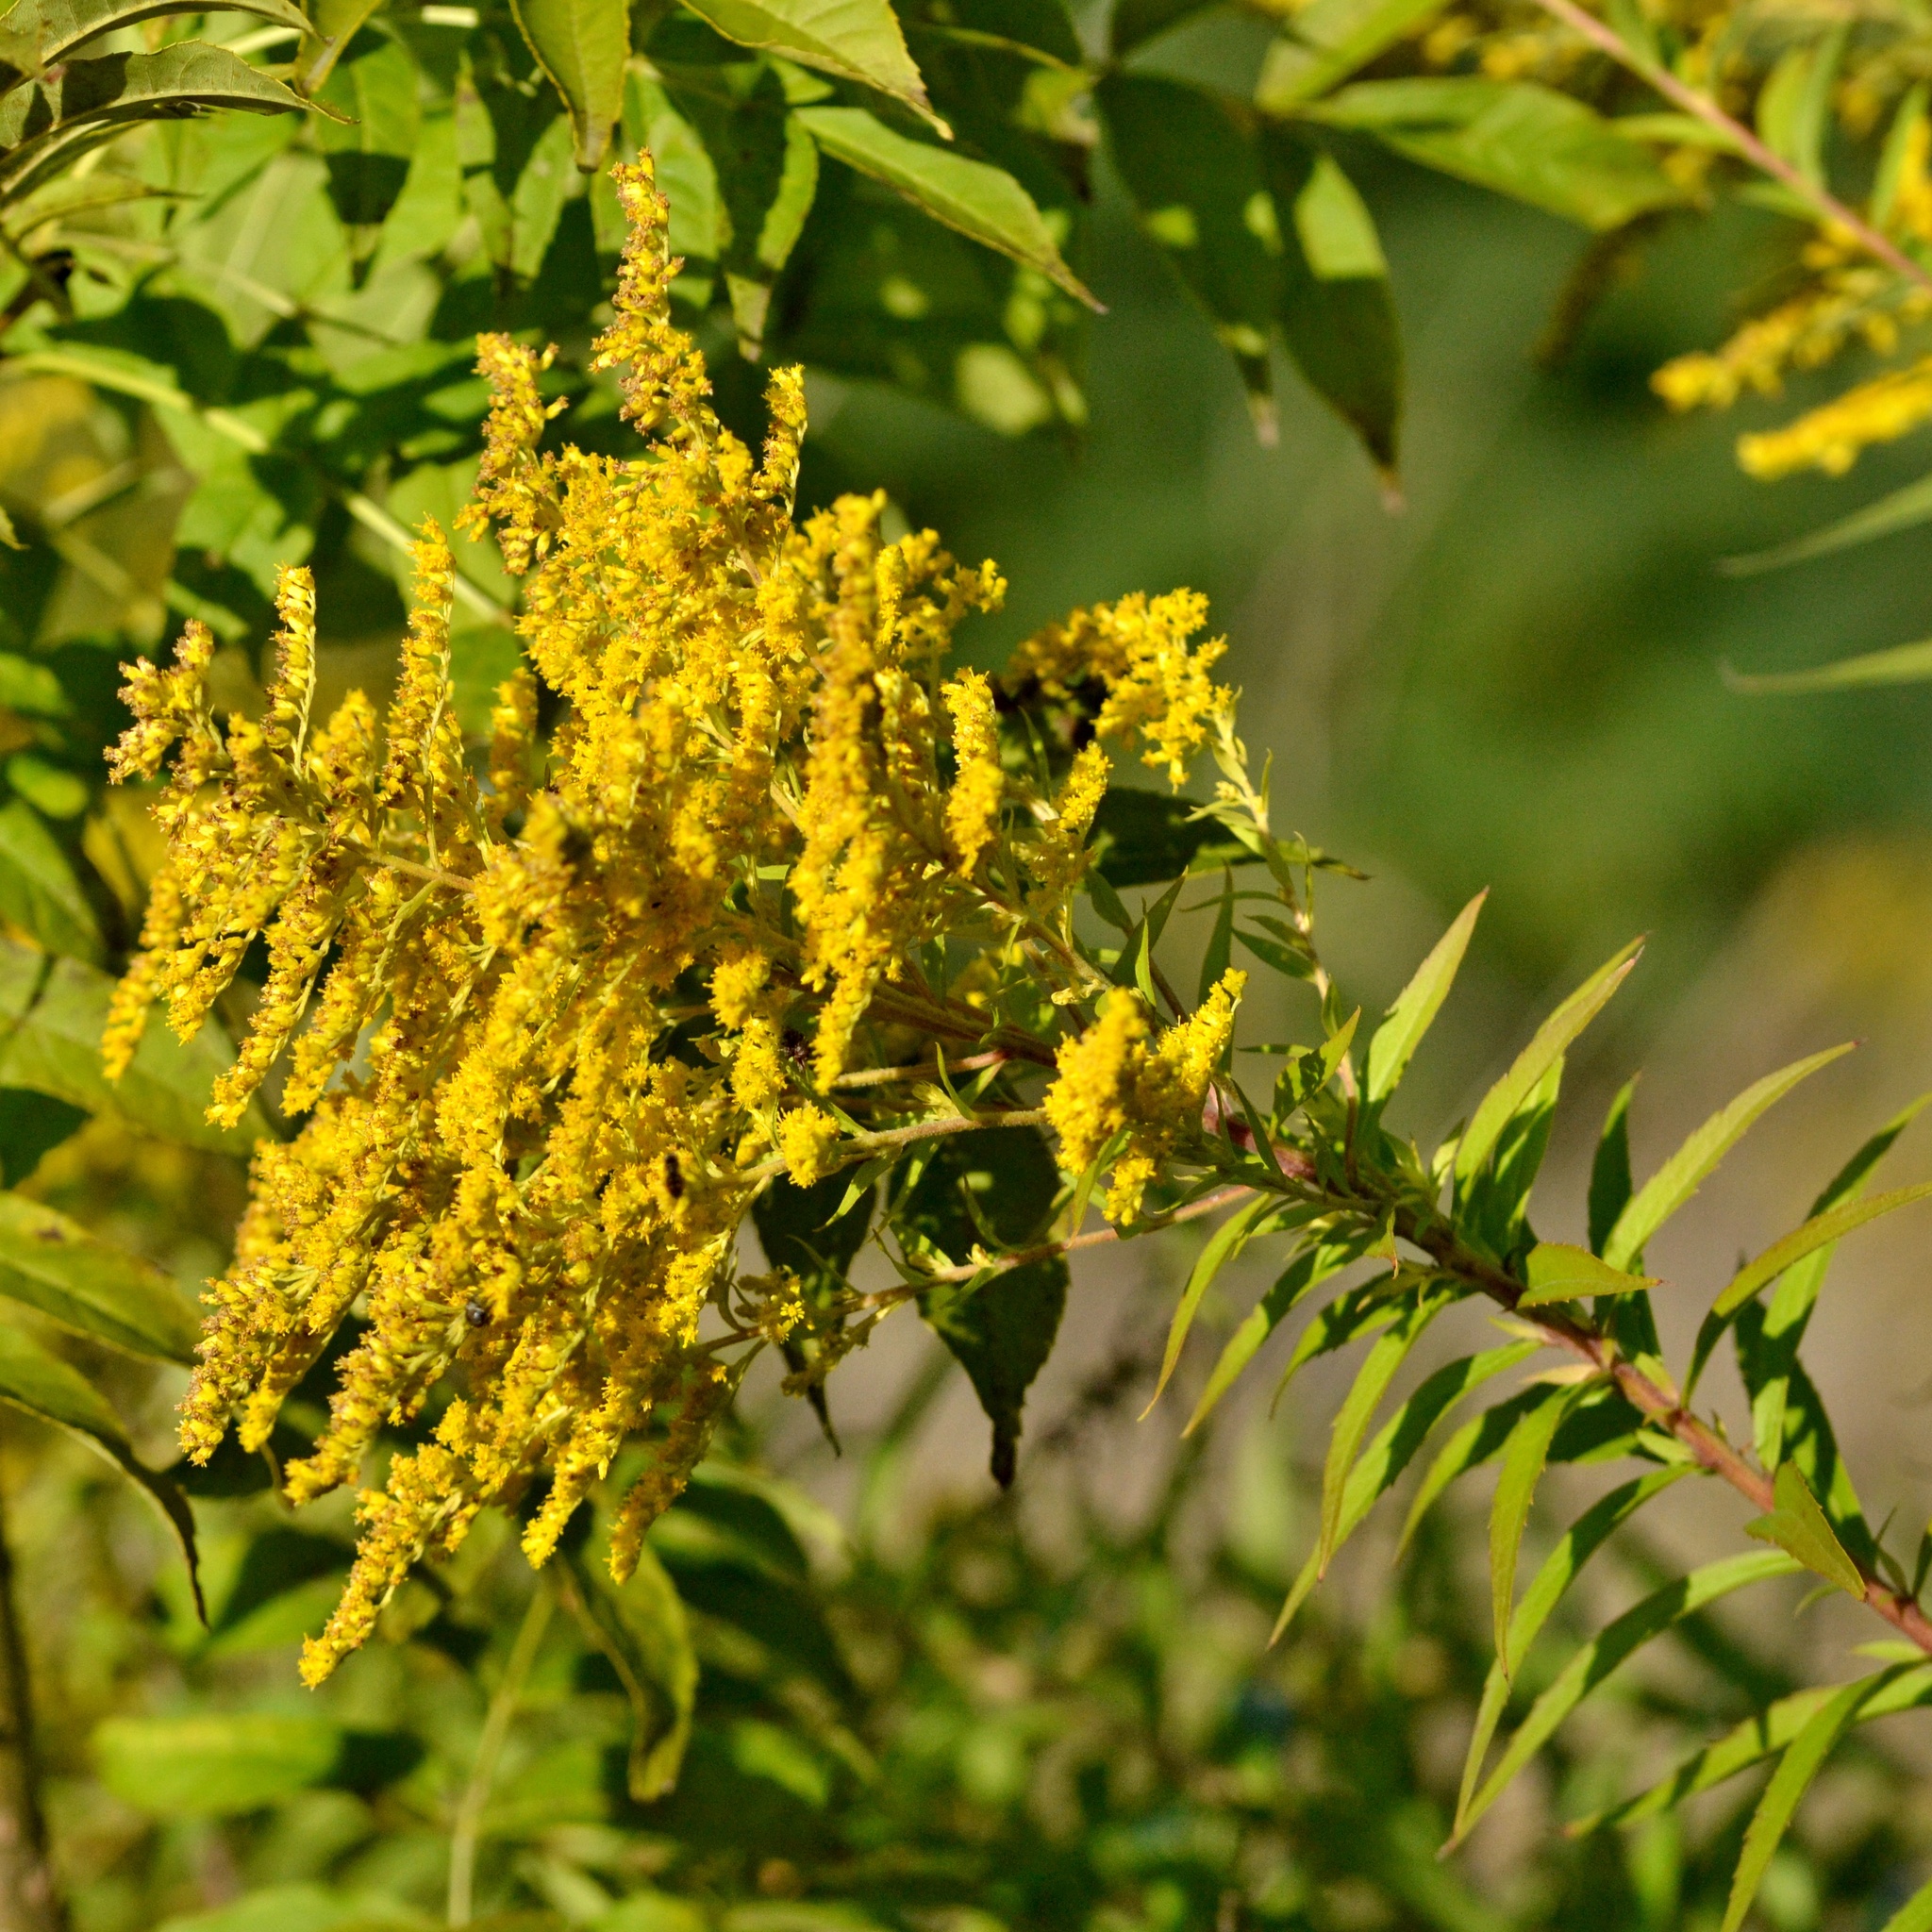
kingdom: Plantae
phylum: Tracheophyta
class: Magnoliopsida
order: Asterales
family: Asteraceae
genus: Solidago
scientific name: Solidago canadensis
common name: Canada goldenrod
